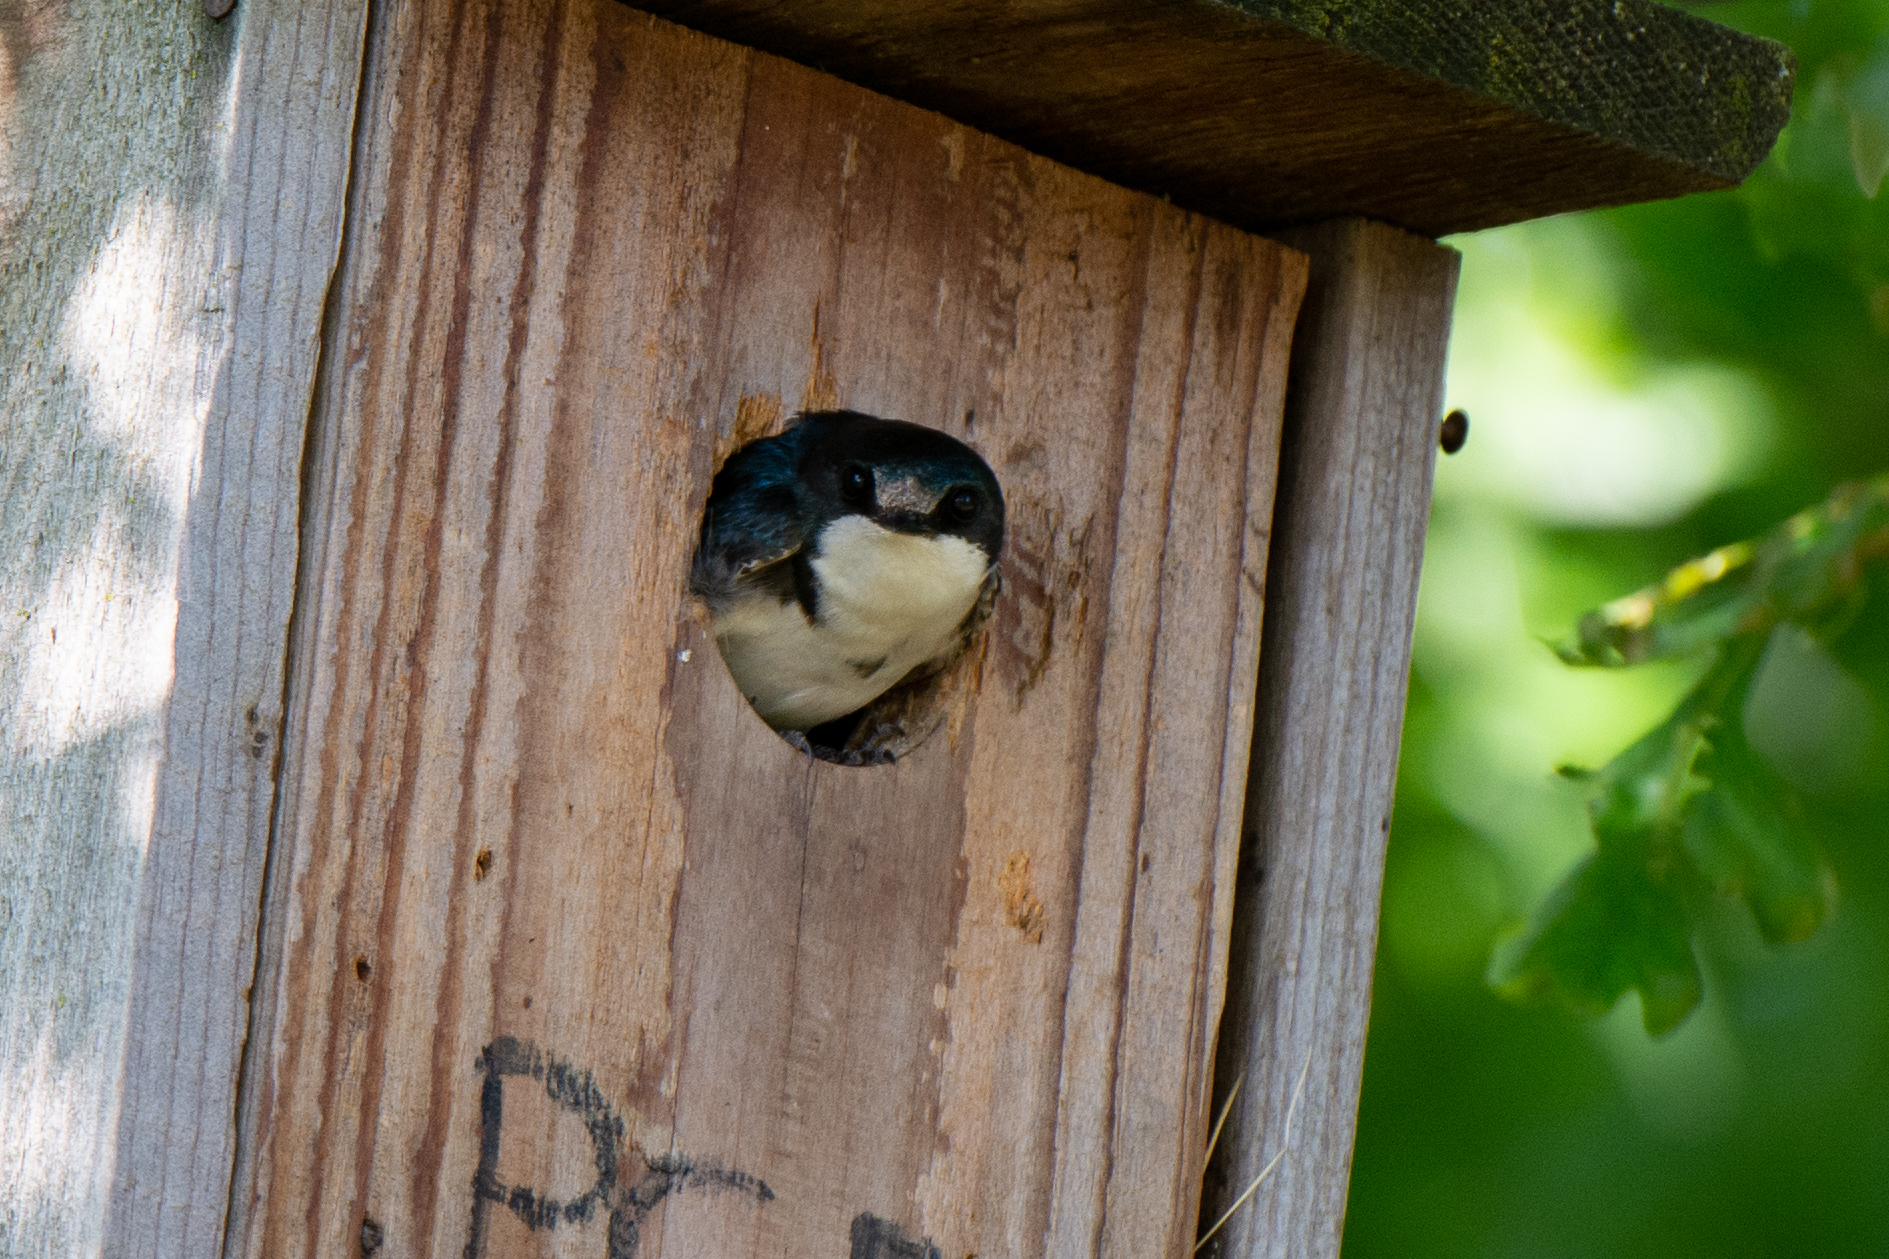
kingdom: Animalia
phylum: Chordata
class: Aves
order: Passeriformes
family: Hirundinidae
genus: Tachycineta
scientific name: Tachycineta bicolor
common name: Tree swallow
